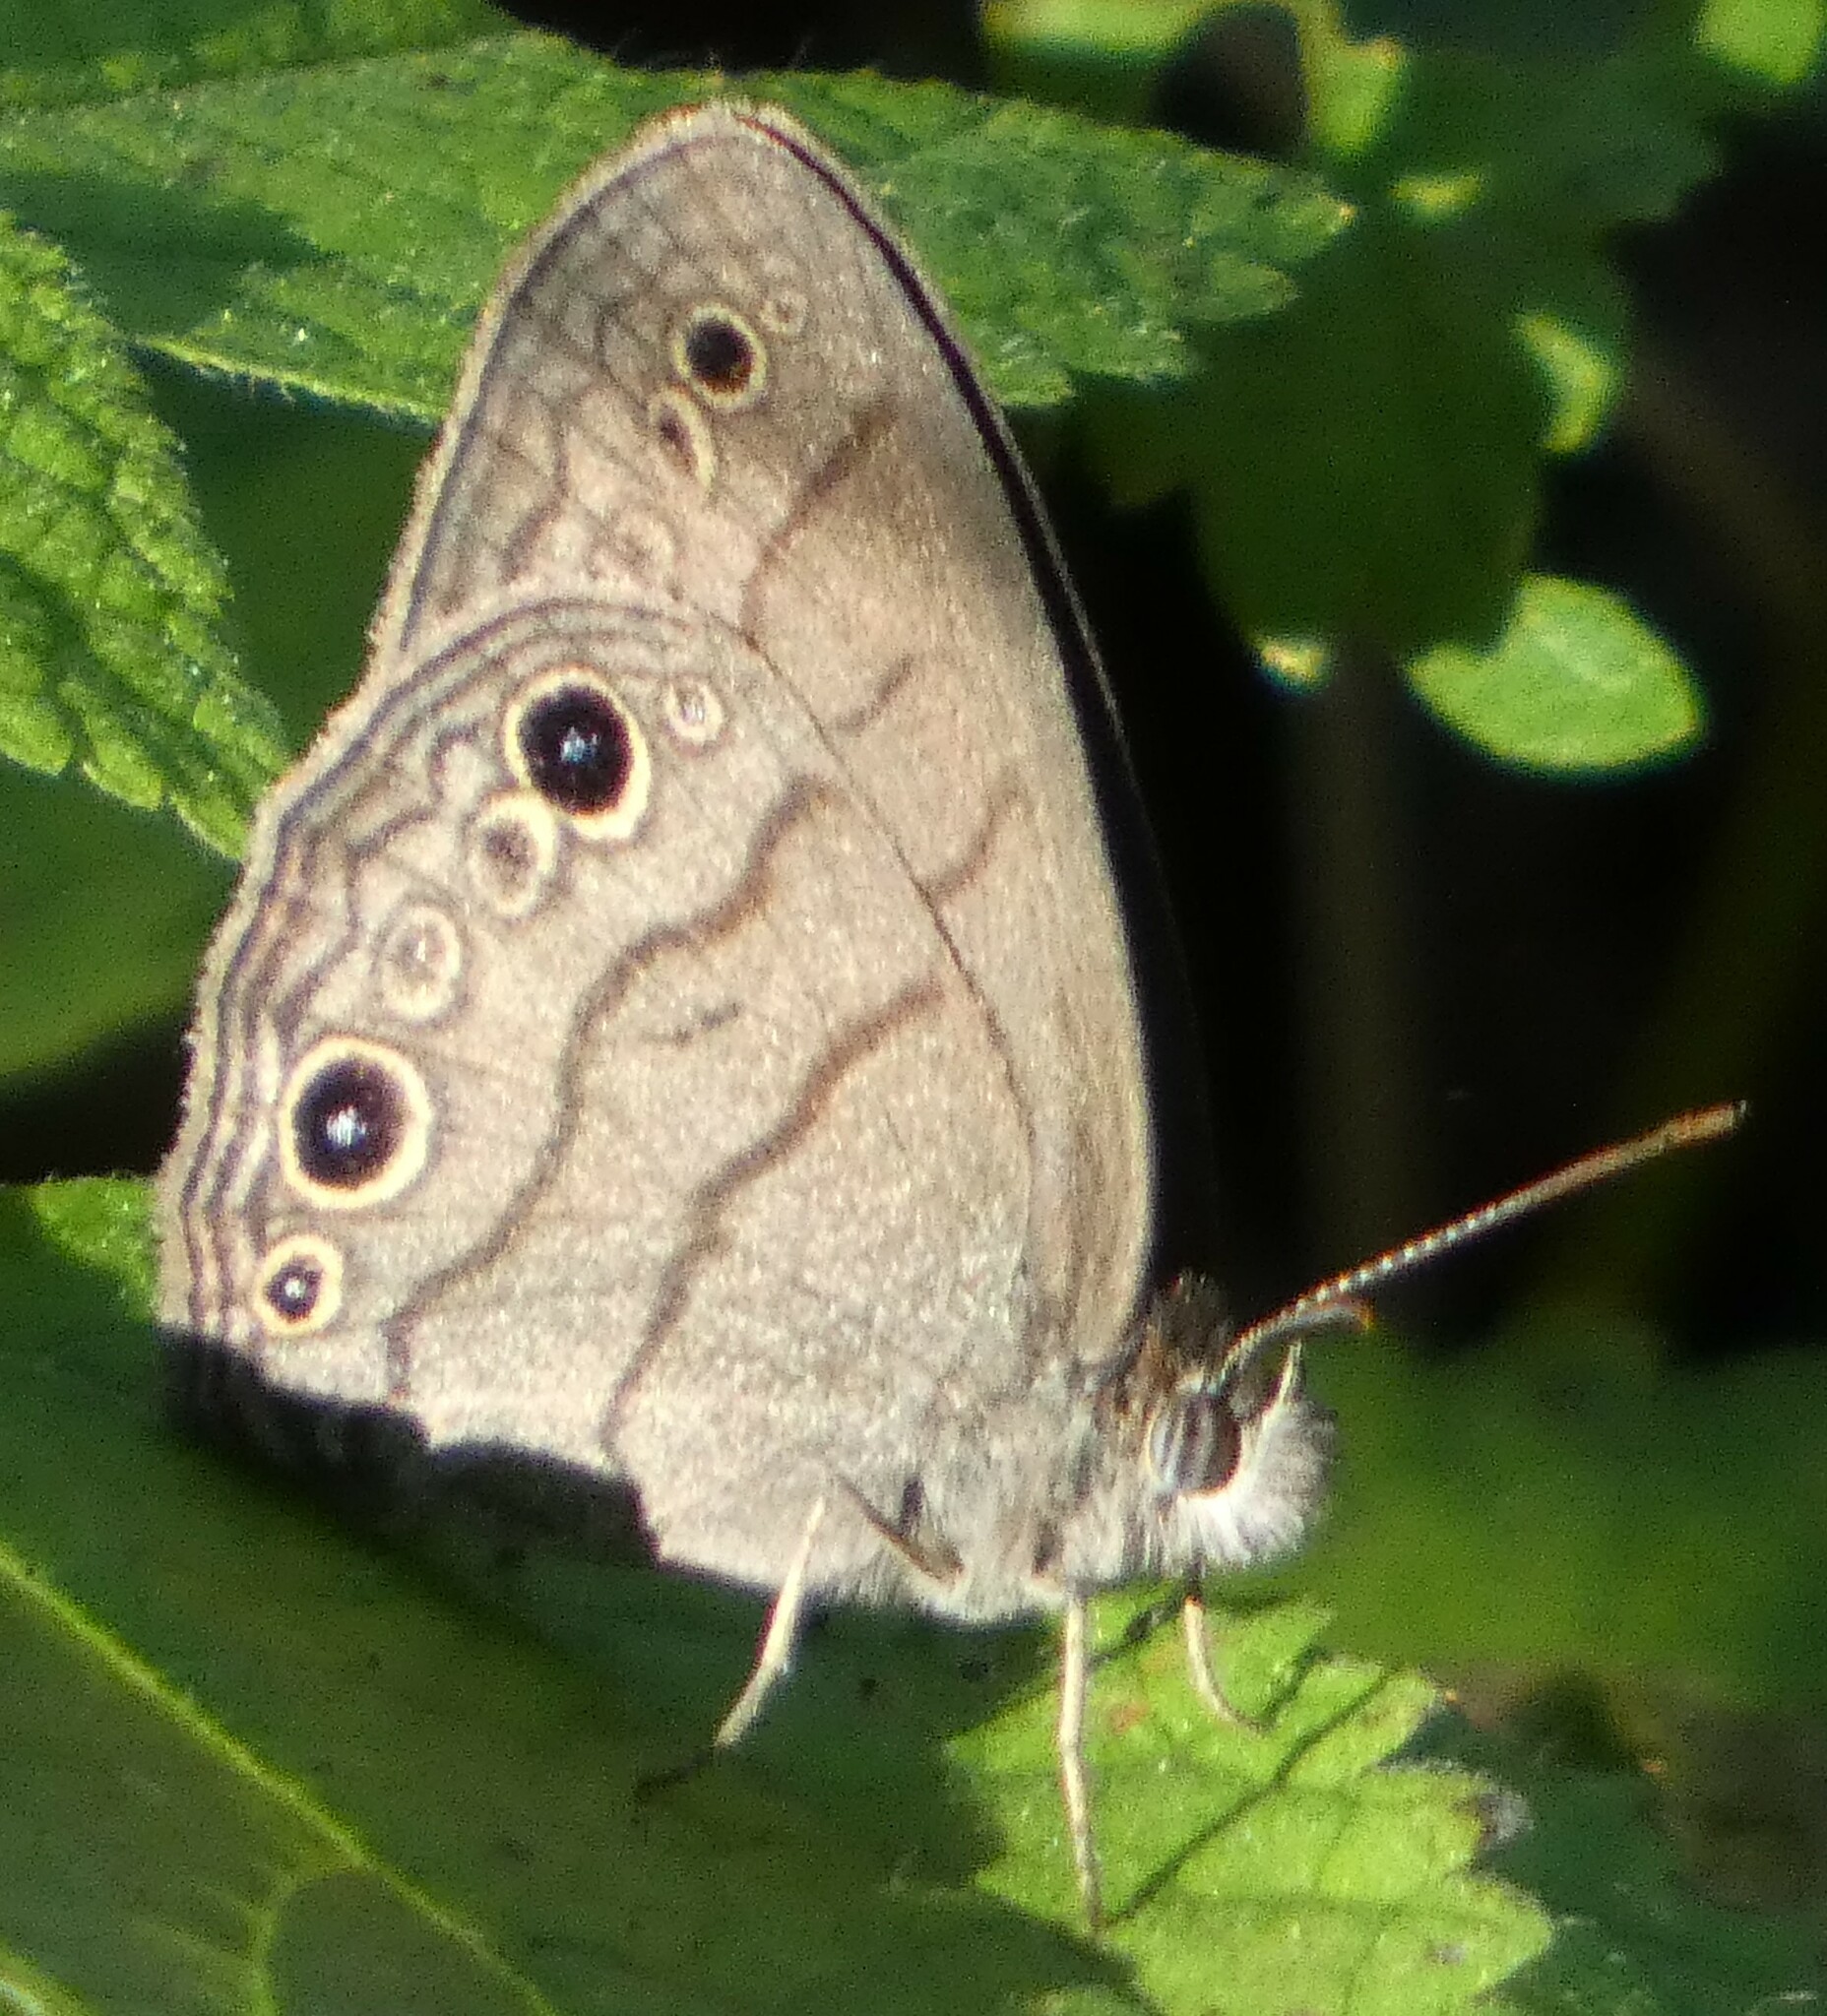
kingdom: Animalia
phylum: Arthropoda
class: Insecta
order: Lepidoptera
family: Nymphalidae
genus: Hermeuptychia
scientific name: Hermeuptychia hermes
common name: Hermes satyr
